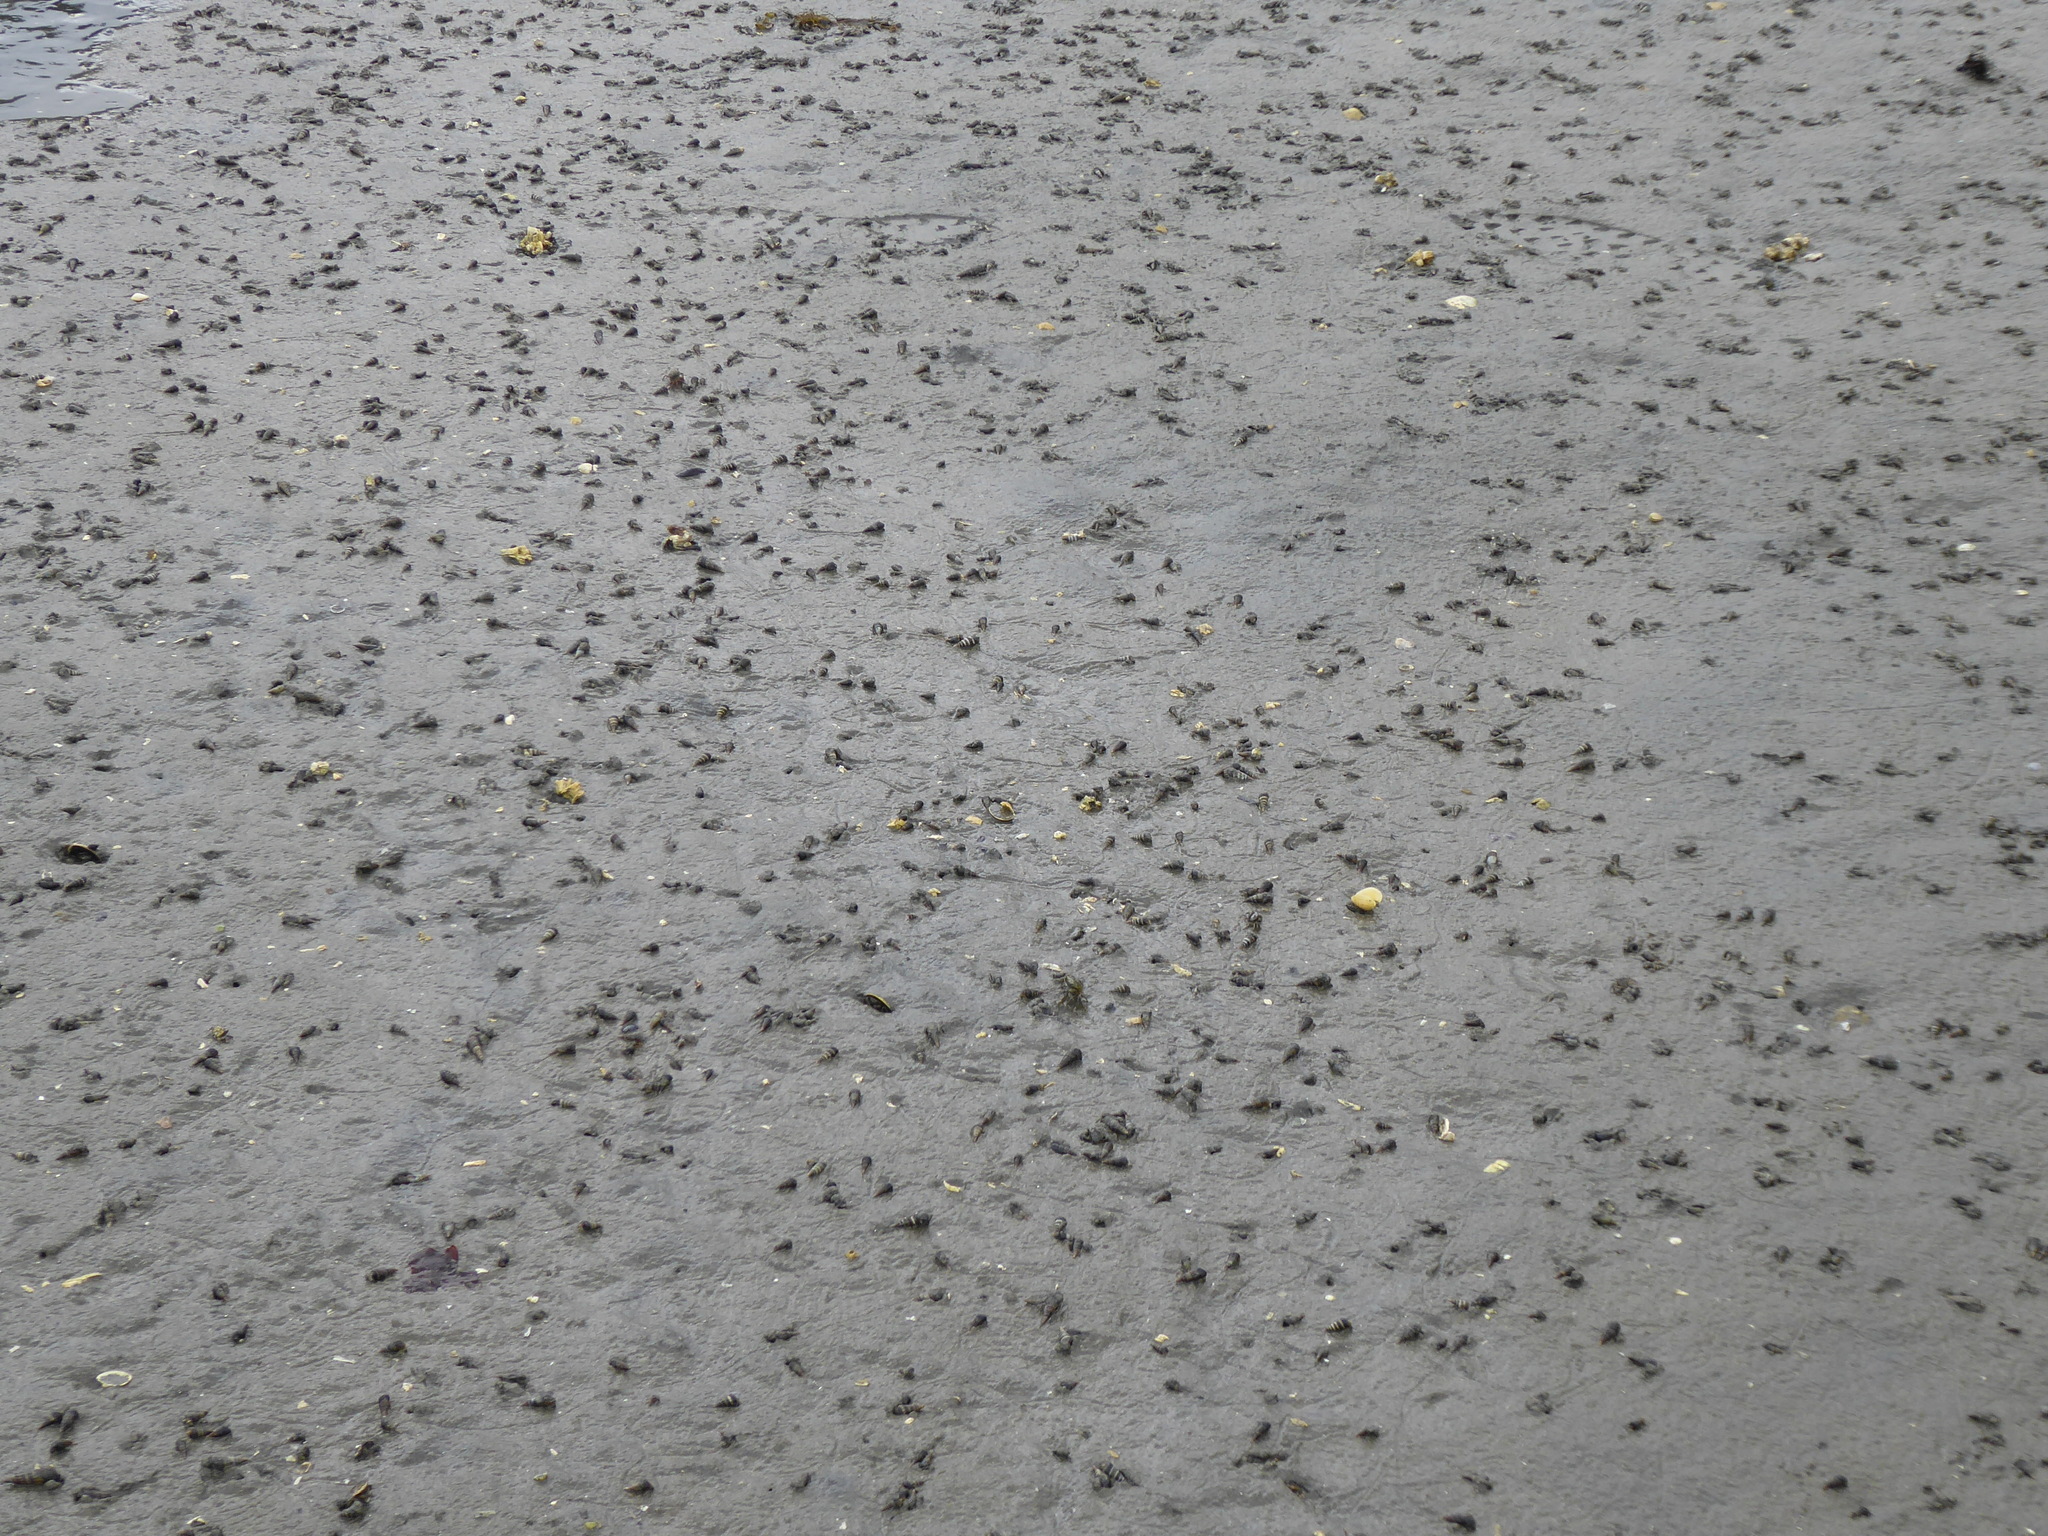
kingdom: Animalia
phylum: Mollusca
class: Gastropoda
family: Batillariidae
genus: Batillaria
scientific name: Batillaria attramentaria
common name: Japanese false cerith
